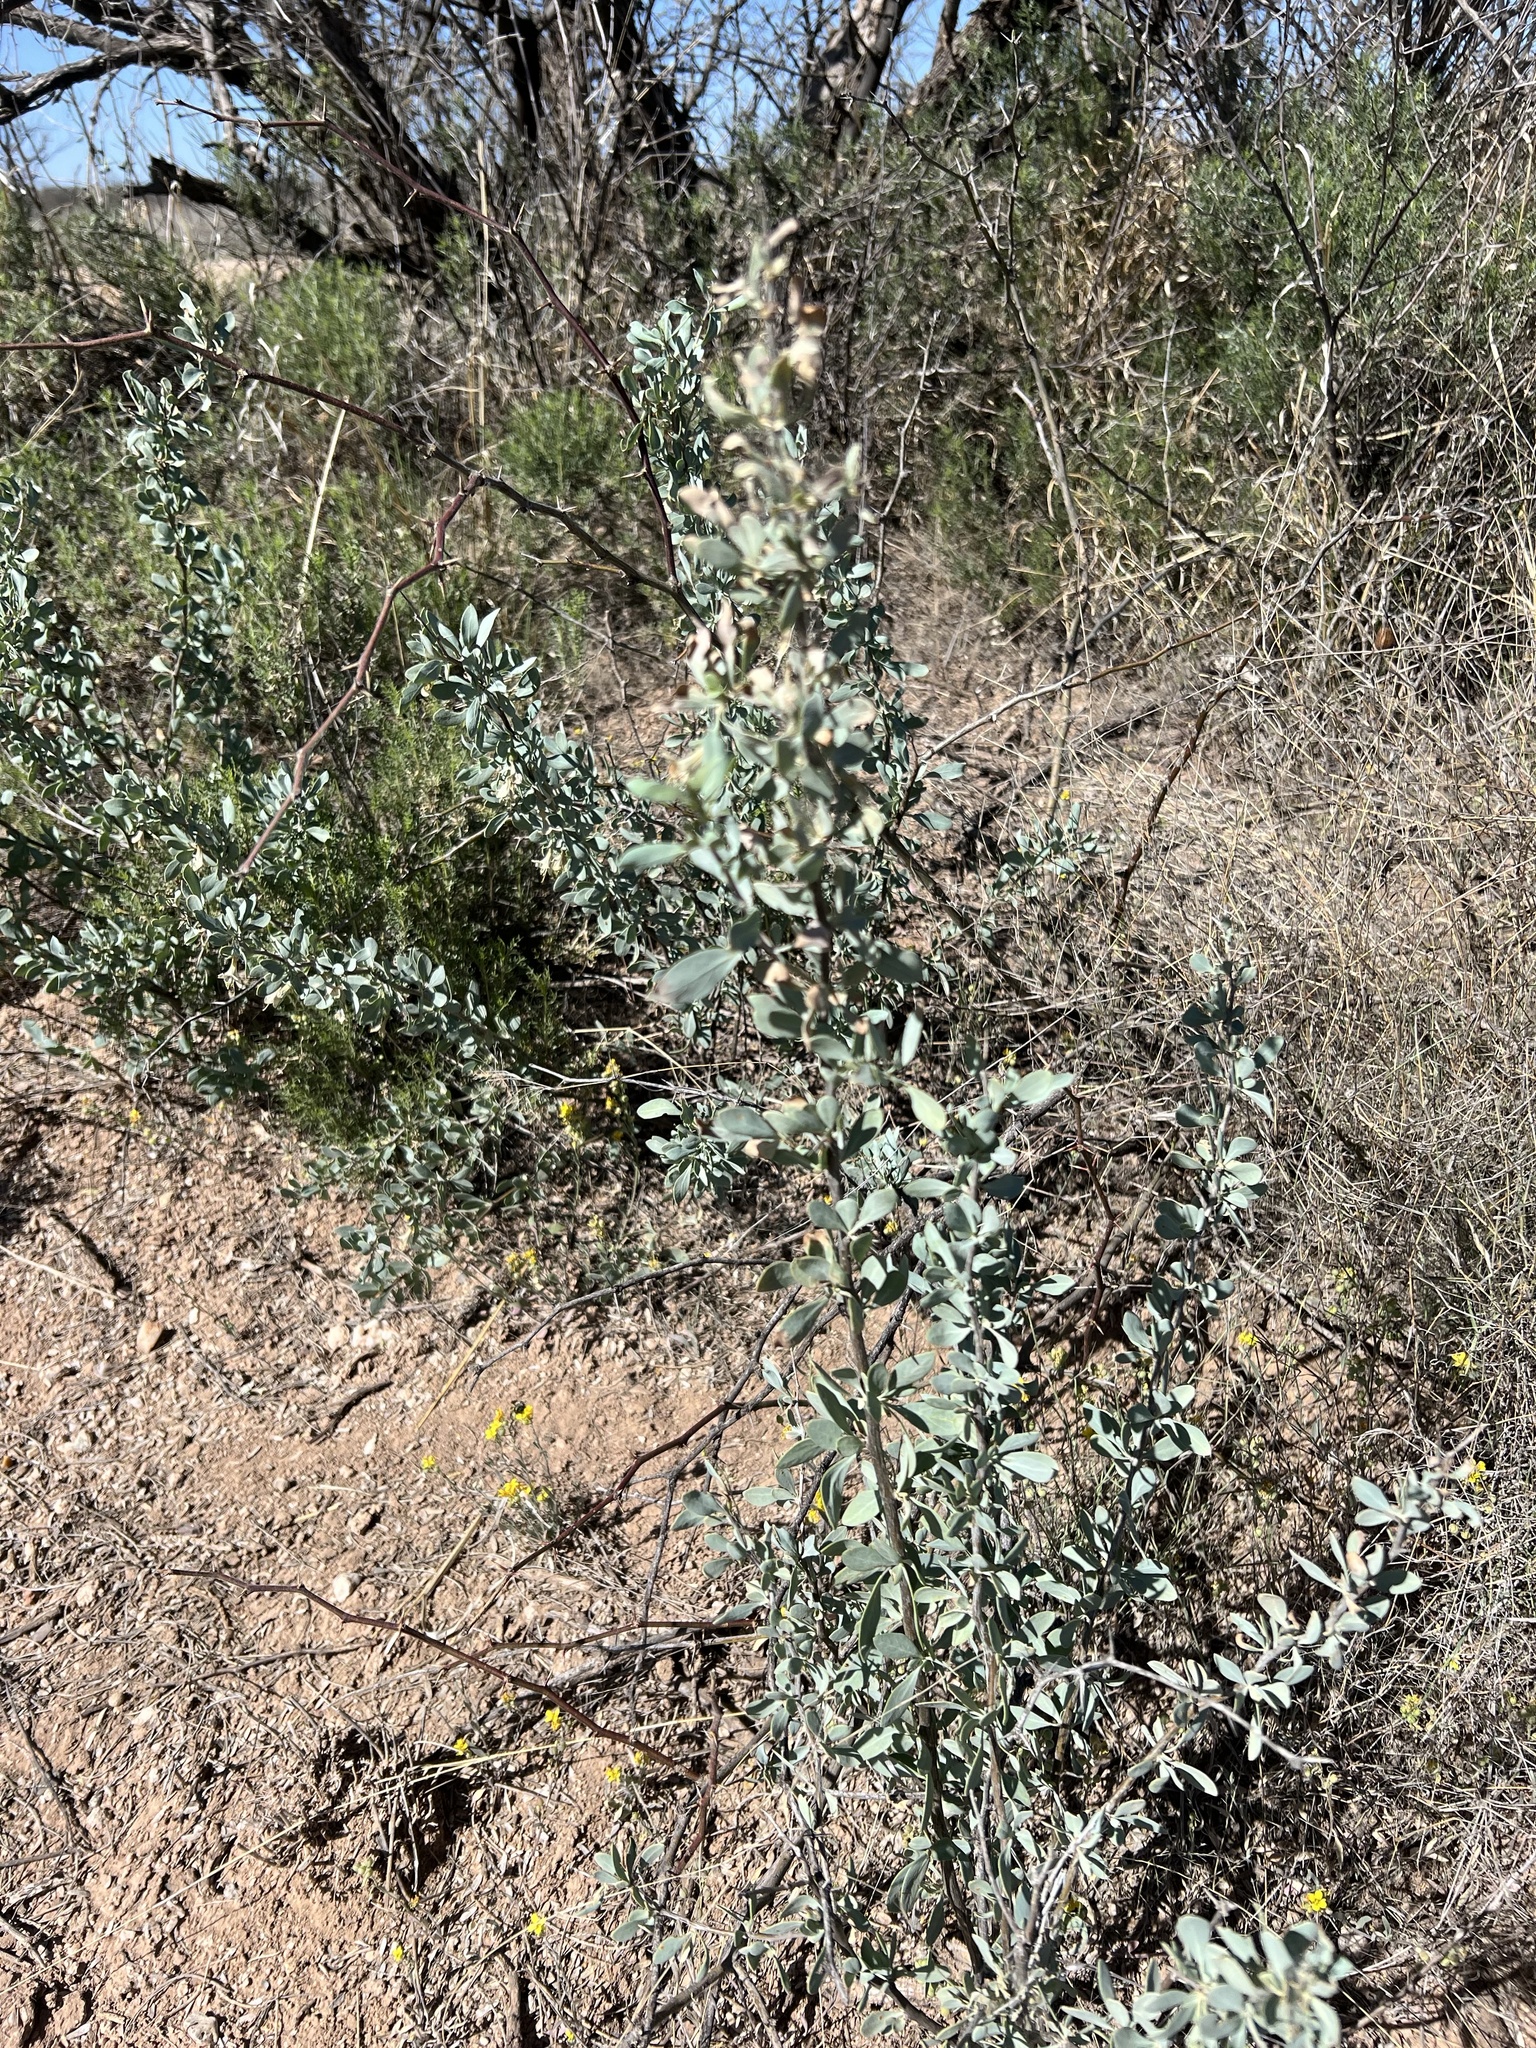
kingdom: Plantae
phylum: Tracheophyta
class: Magnoliopsida
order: Solanales
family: Solanaceae
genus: Lycium
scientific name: Lycium pallidum
